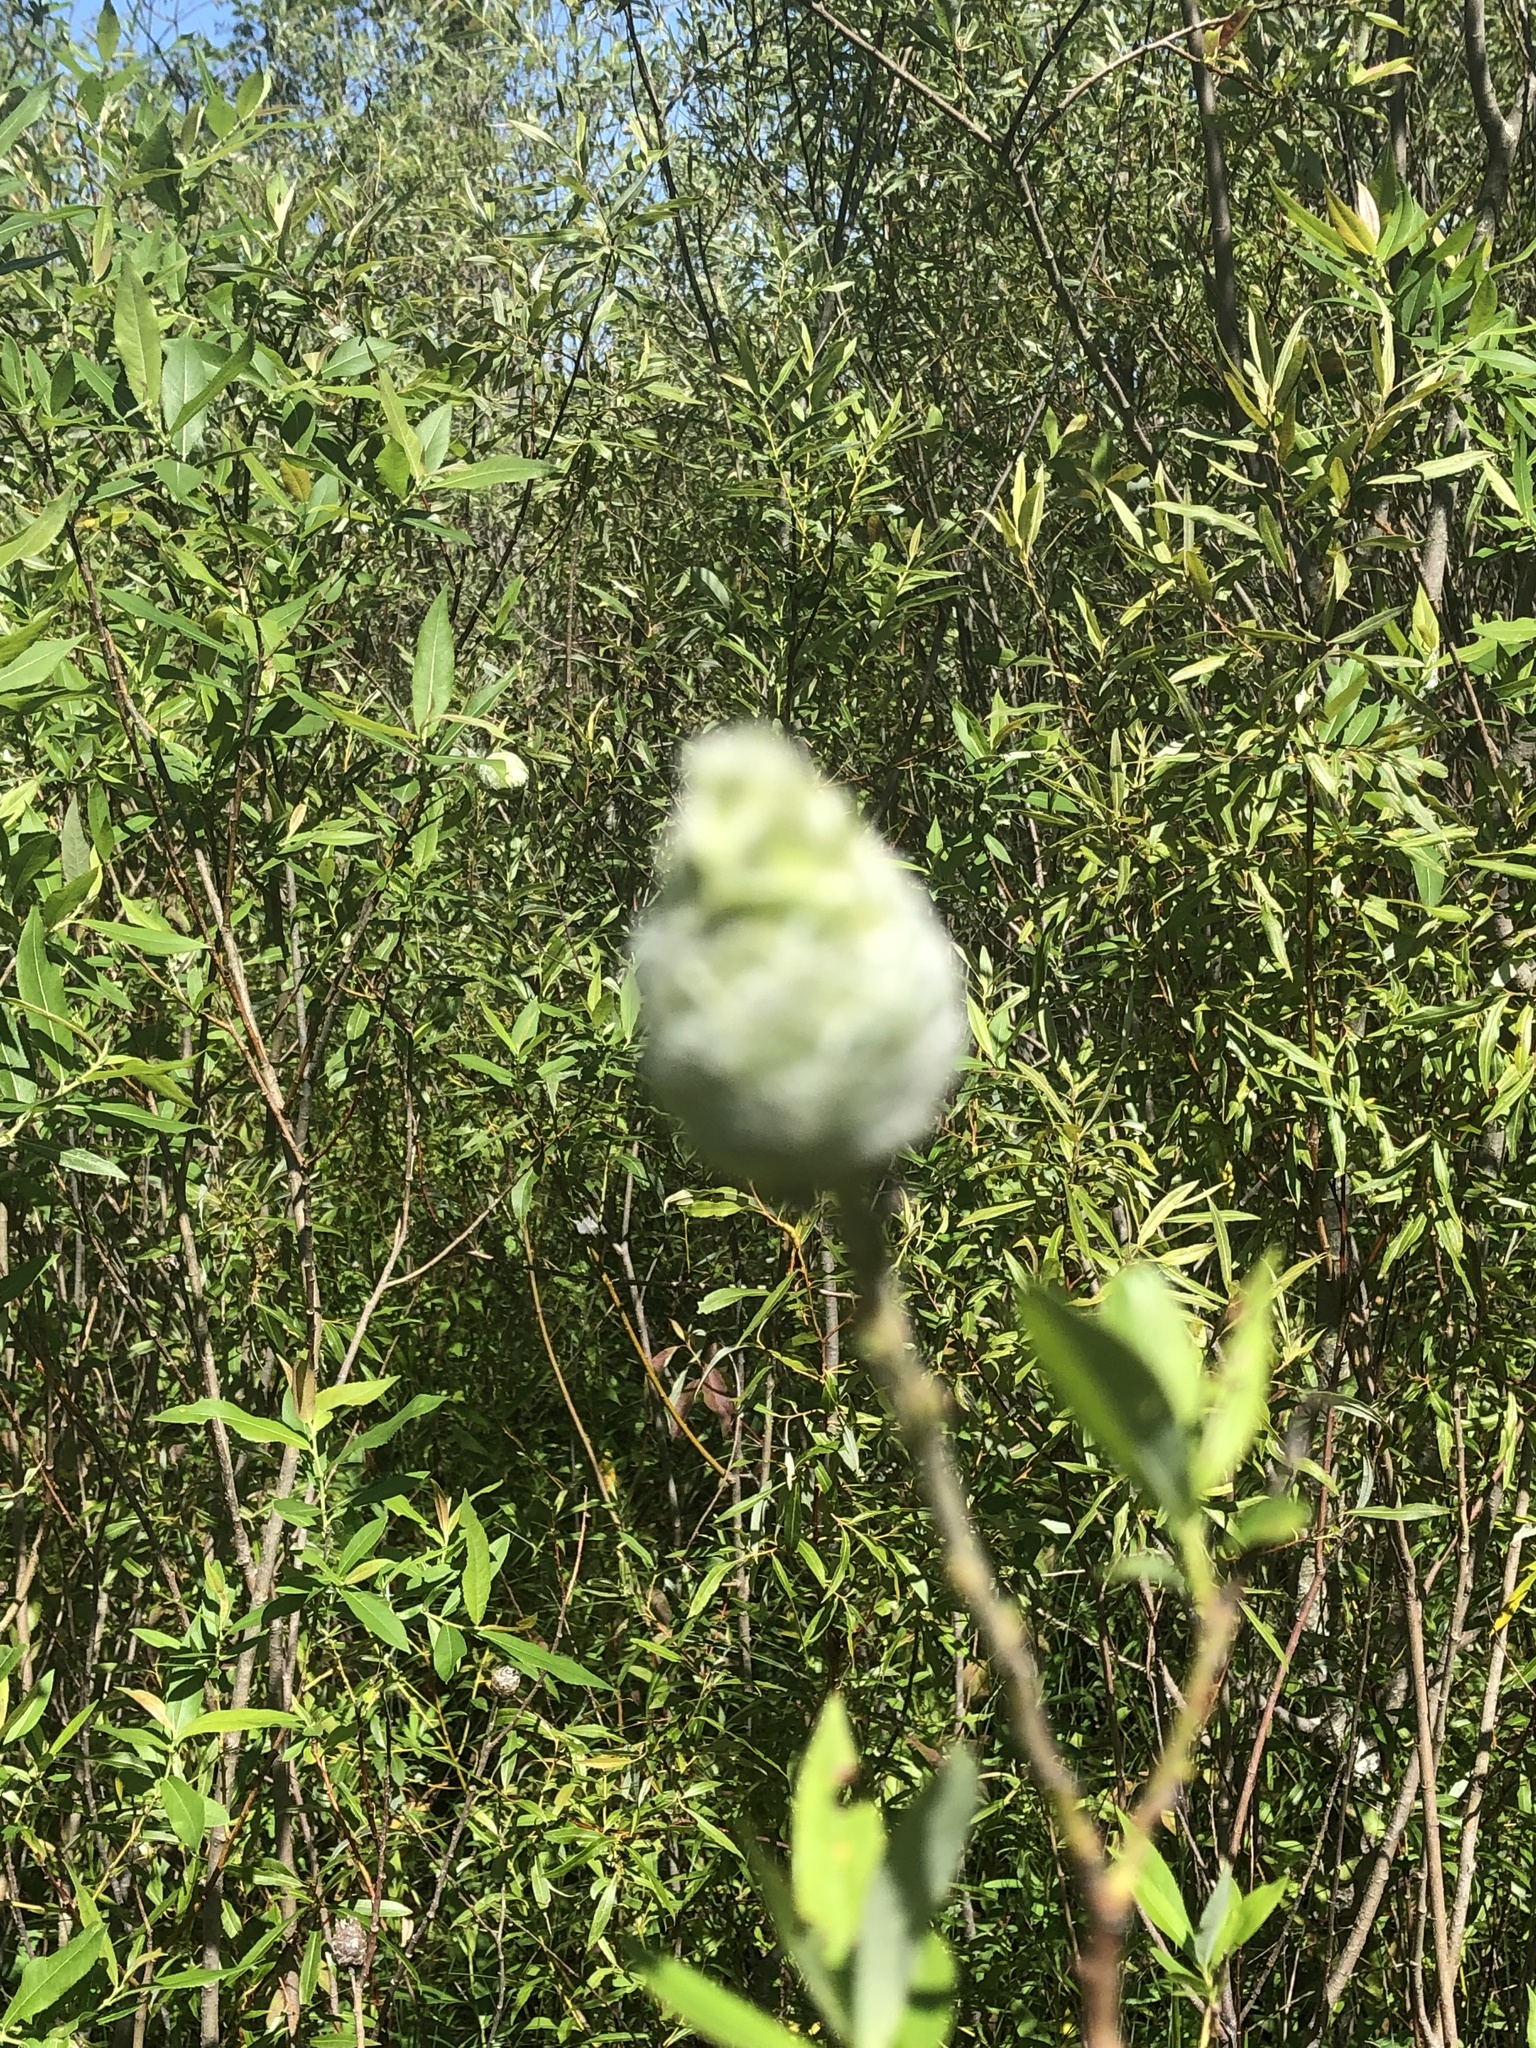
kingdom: Animalia
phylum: Arthropoda
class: Insecta
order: Diptera
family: Cecidomyiidae
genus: Rabdophaga
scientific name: Rabdophaga strobiloides
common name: Willow pinecone gall midge
